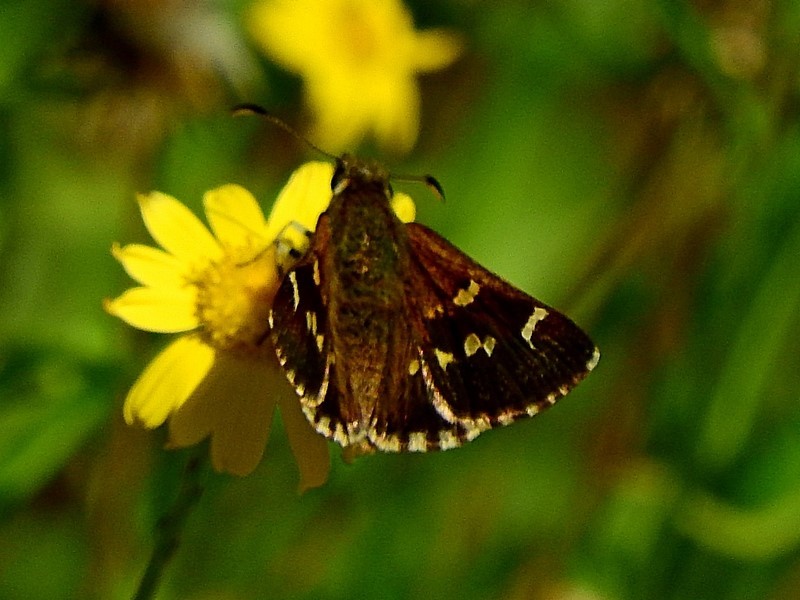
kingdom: Animalia
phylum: Arthropoda
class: Insecta
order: Lepidoptera
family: Hesperiidae
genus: Pasma
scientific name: Pasma tasmanicus
